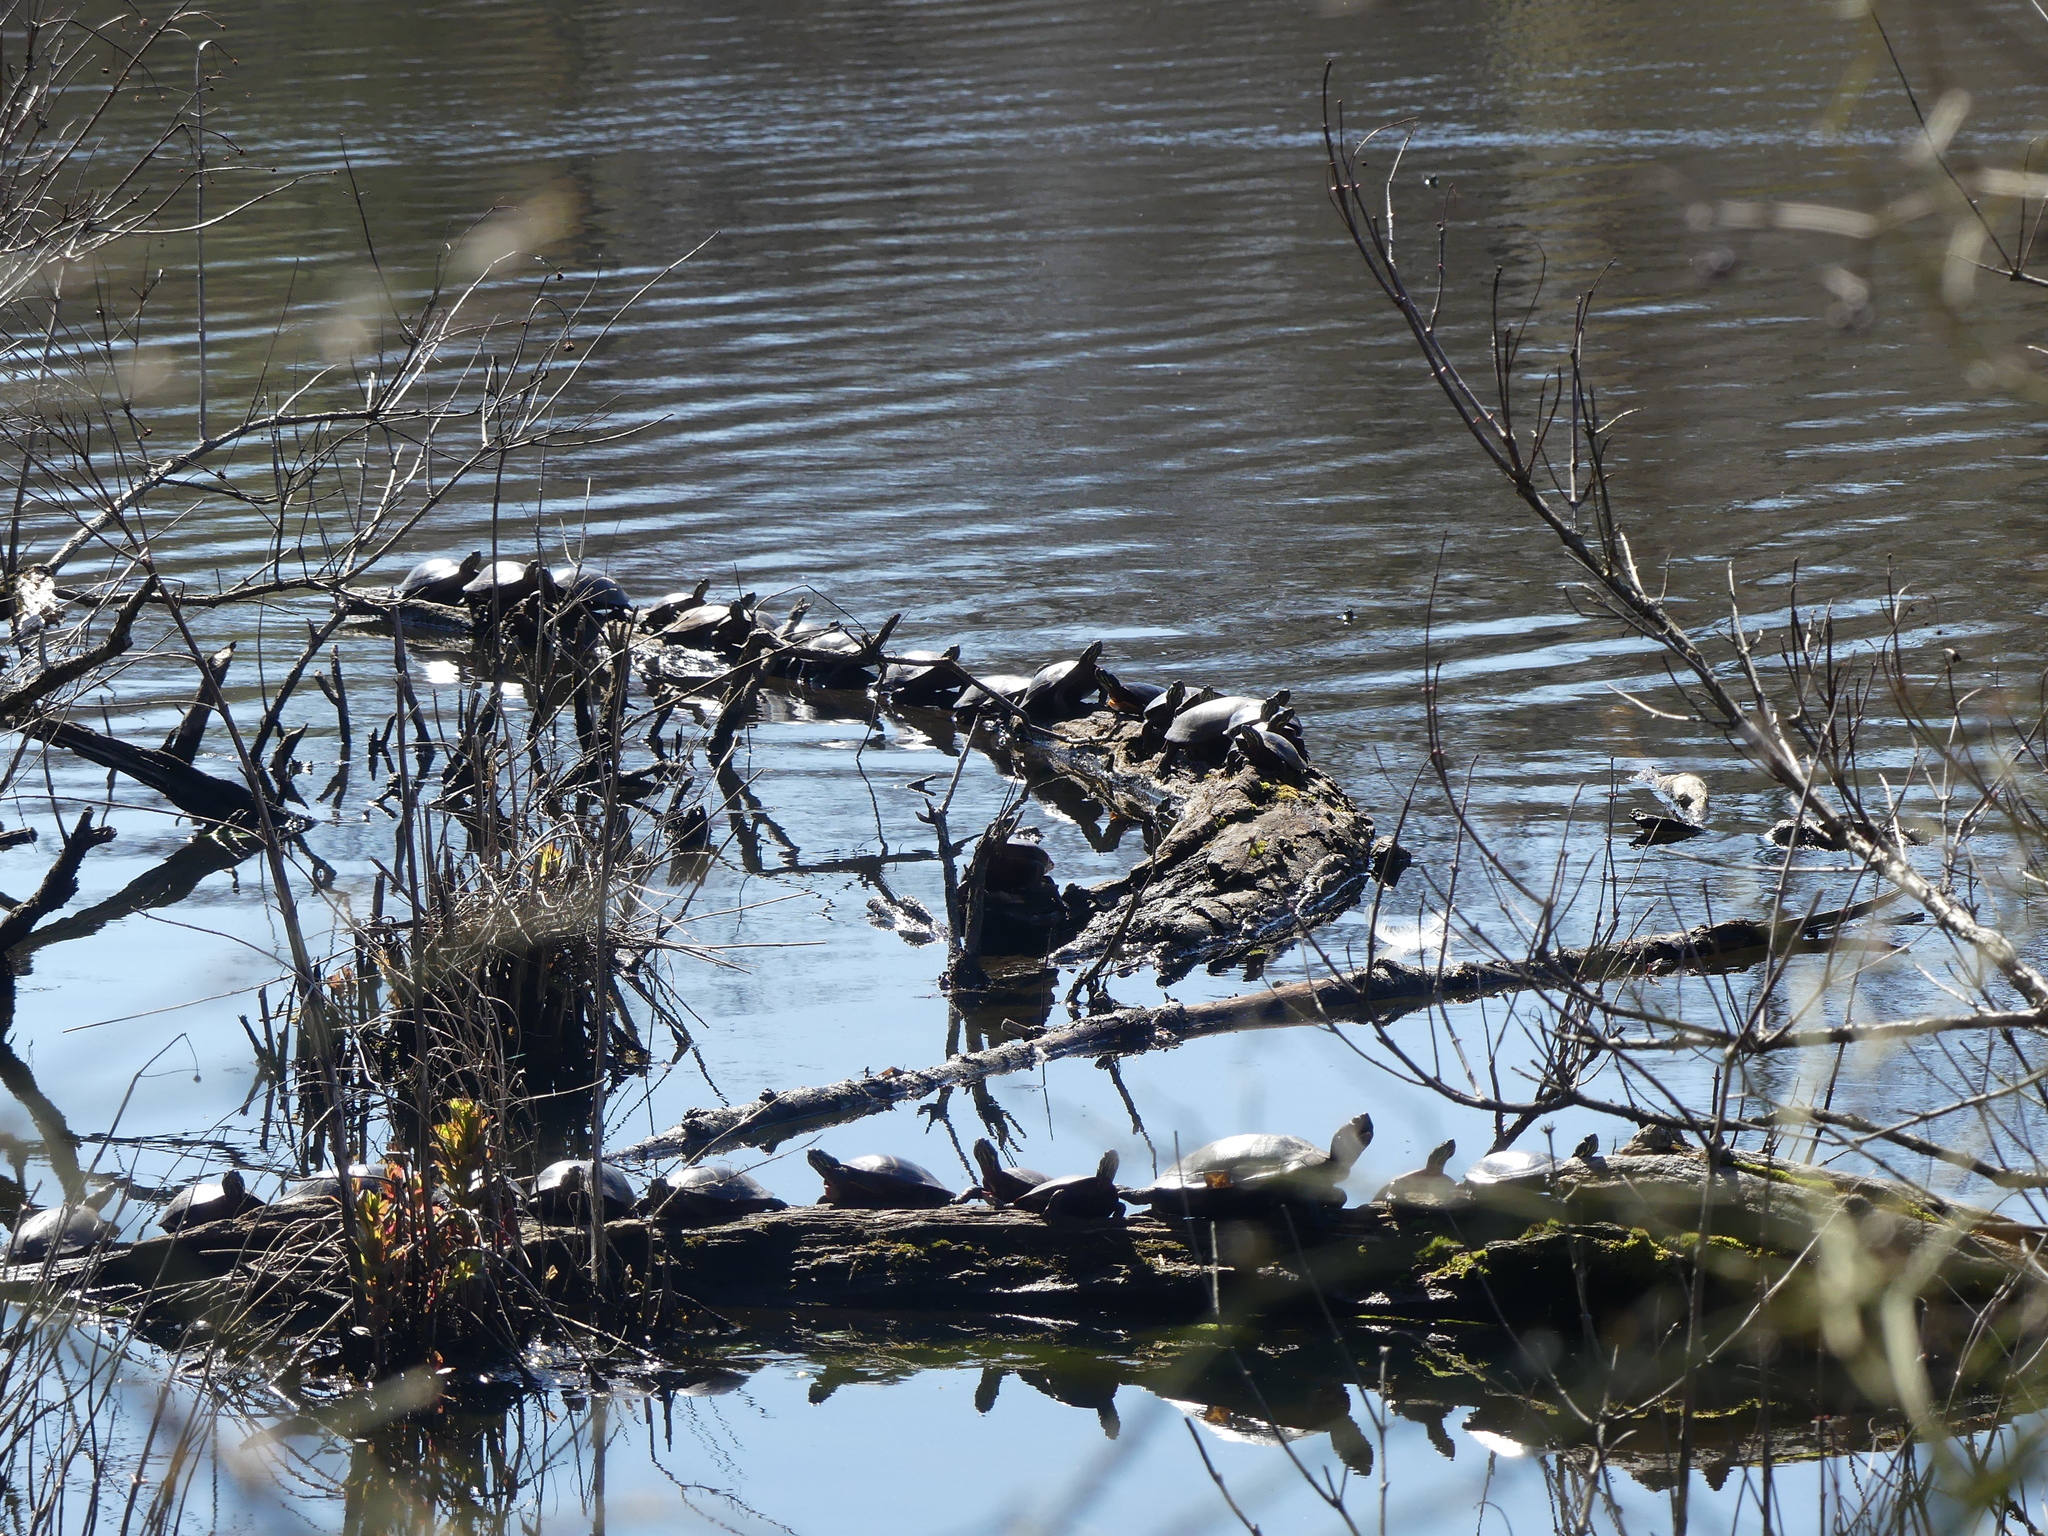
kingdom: Animalia
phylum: Chordata
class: Testudines
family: Emydidae
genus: Chrysemys
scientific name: Chrysemys picta
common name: Painted turtle
